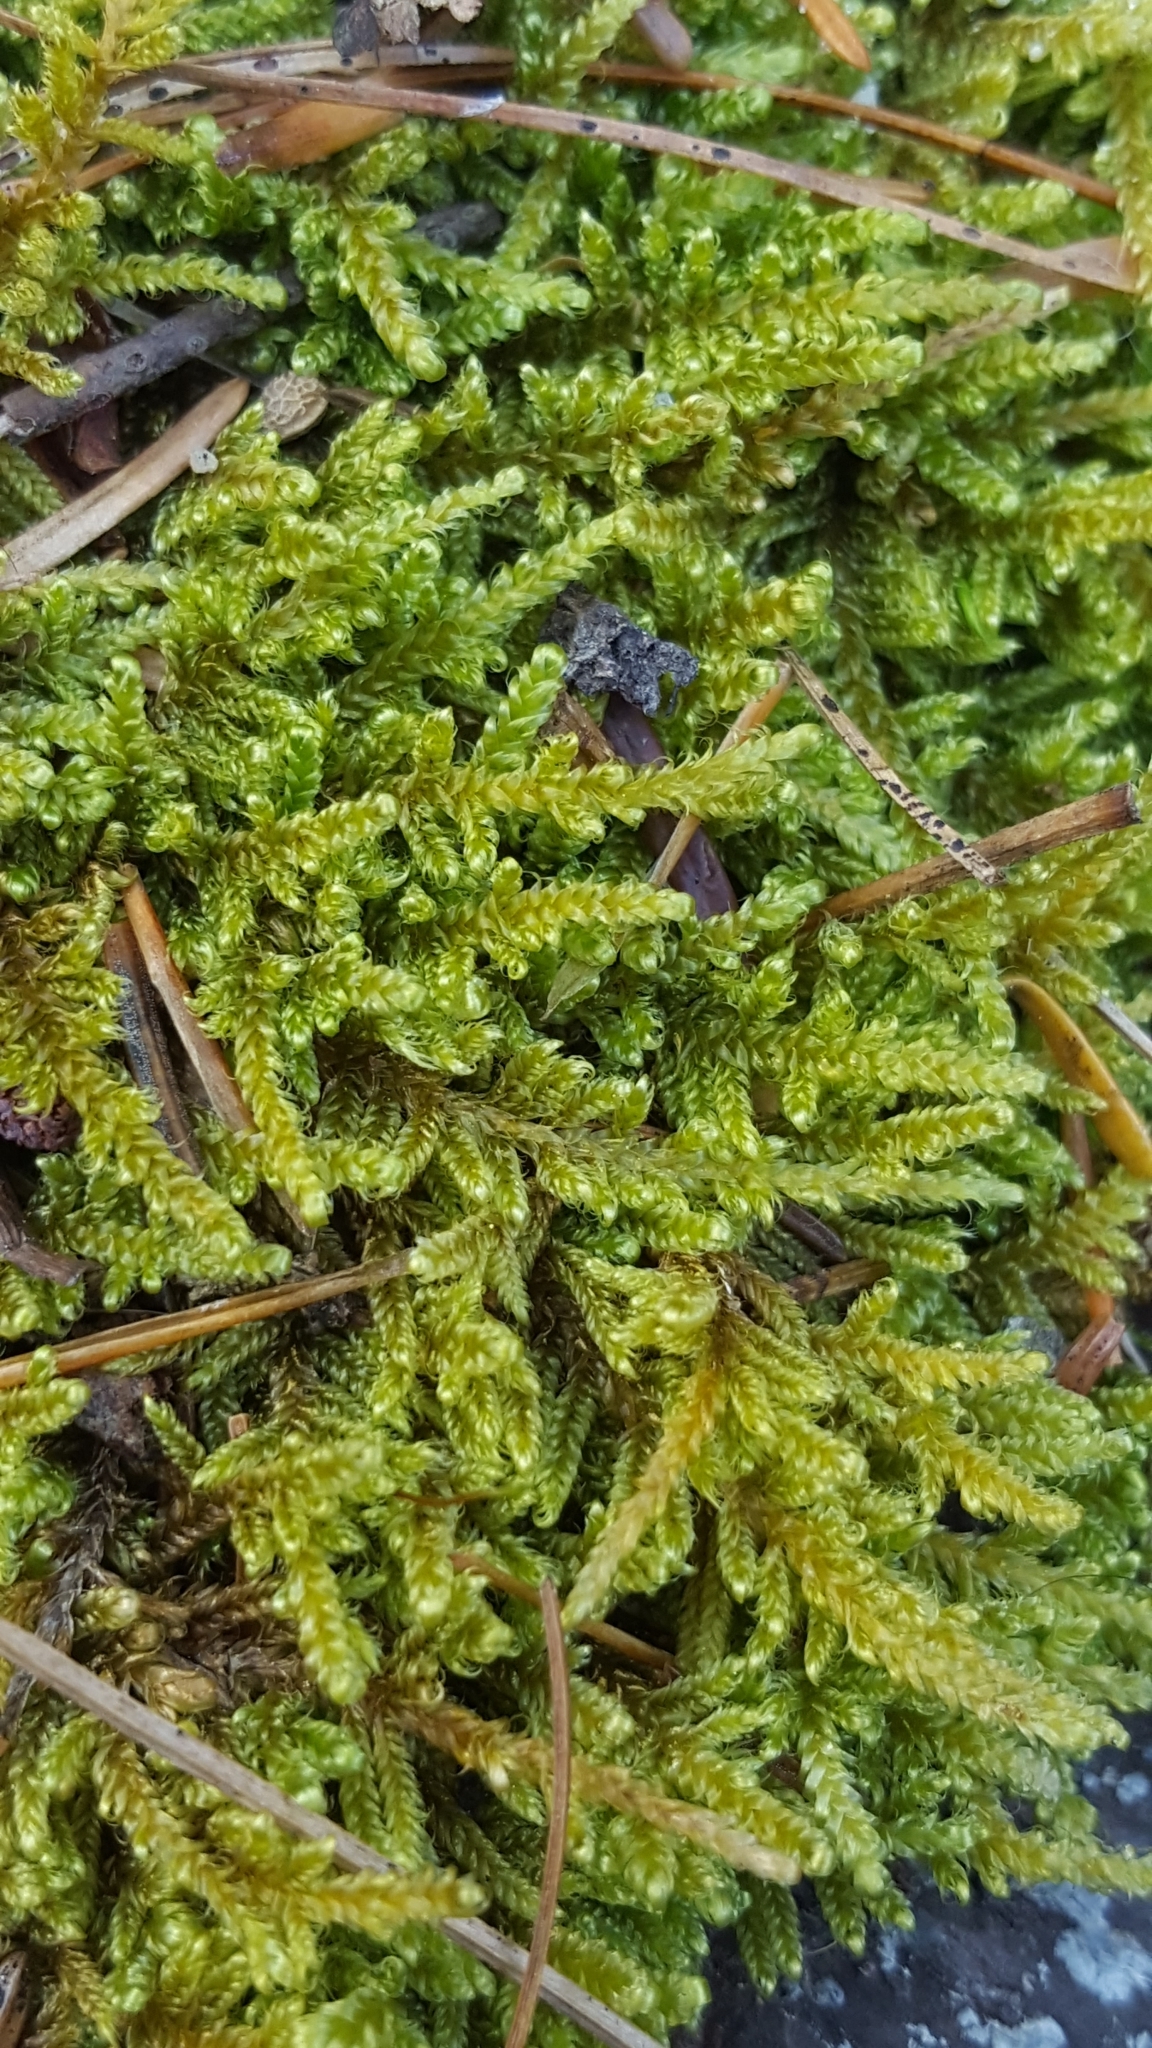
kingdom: Plantae
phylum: Bryophyta
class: Bryopsida
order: Hypnales
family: Hypnaceae
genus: Hypnum
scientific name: Hypnum cupressiforme
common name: Cypress-leaved plait-moss
